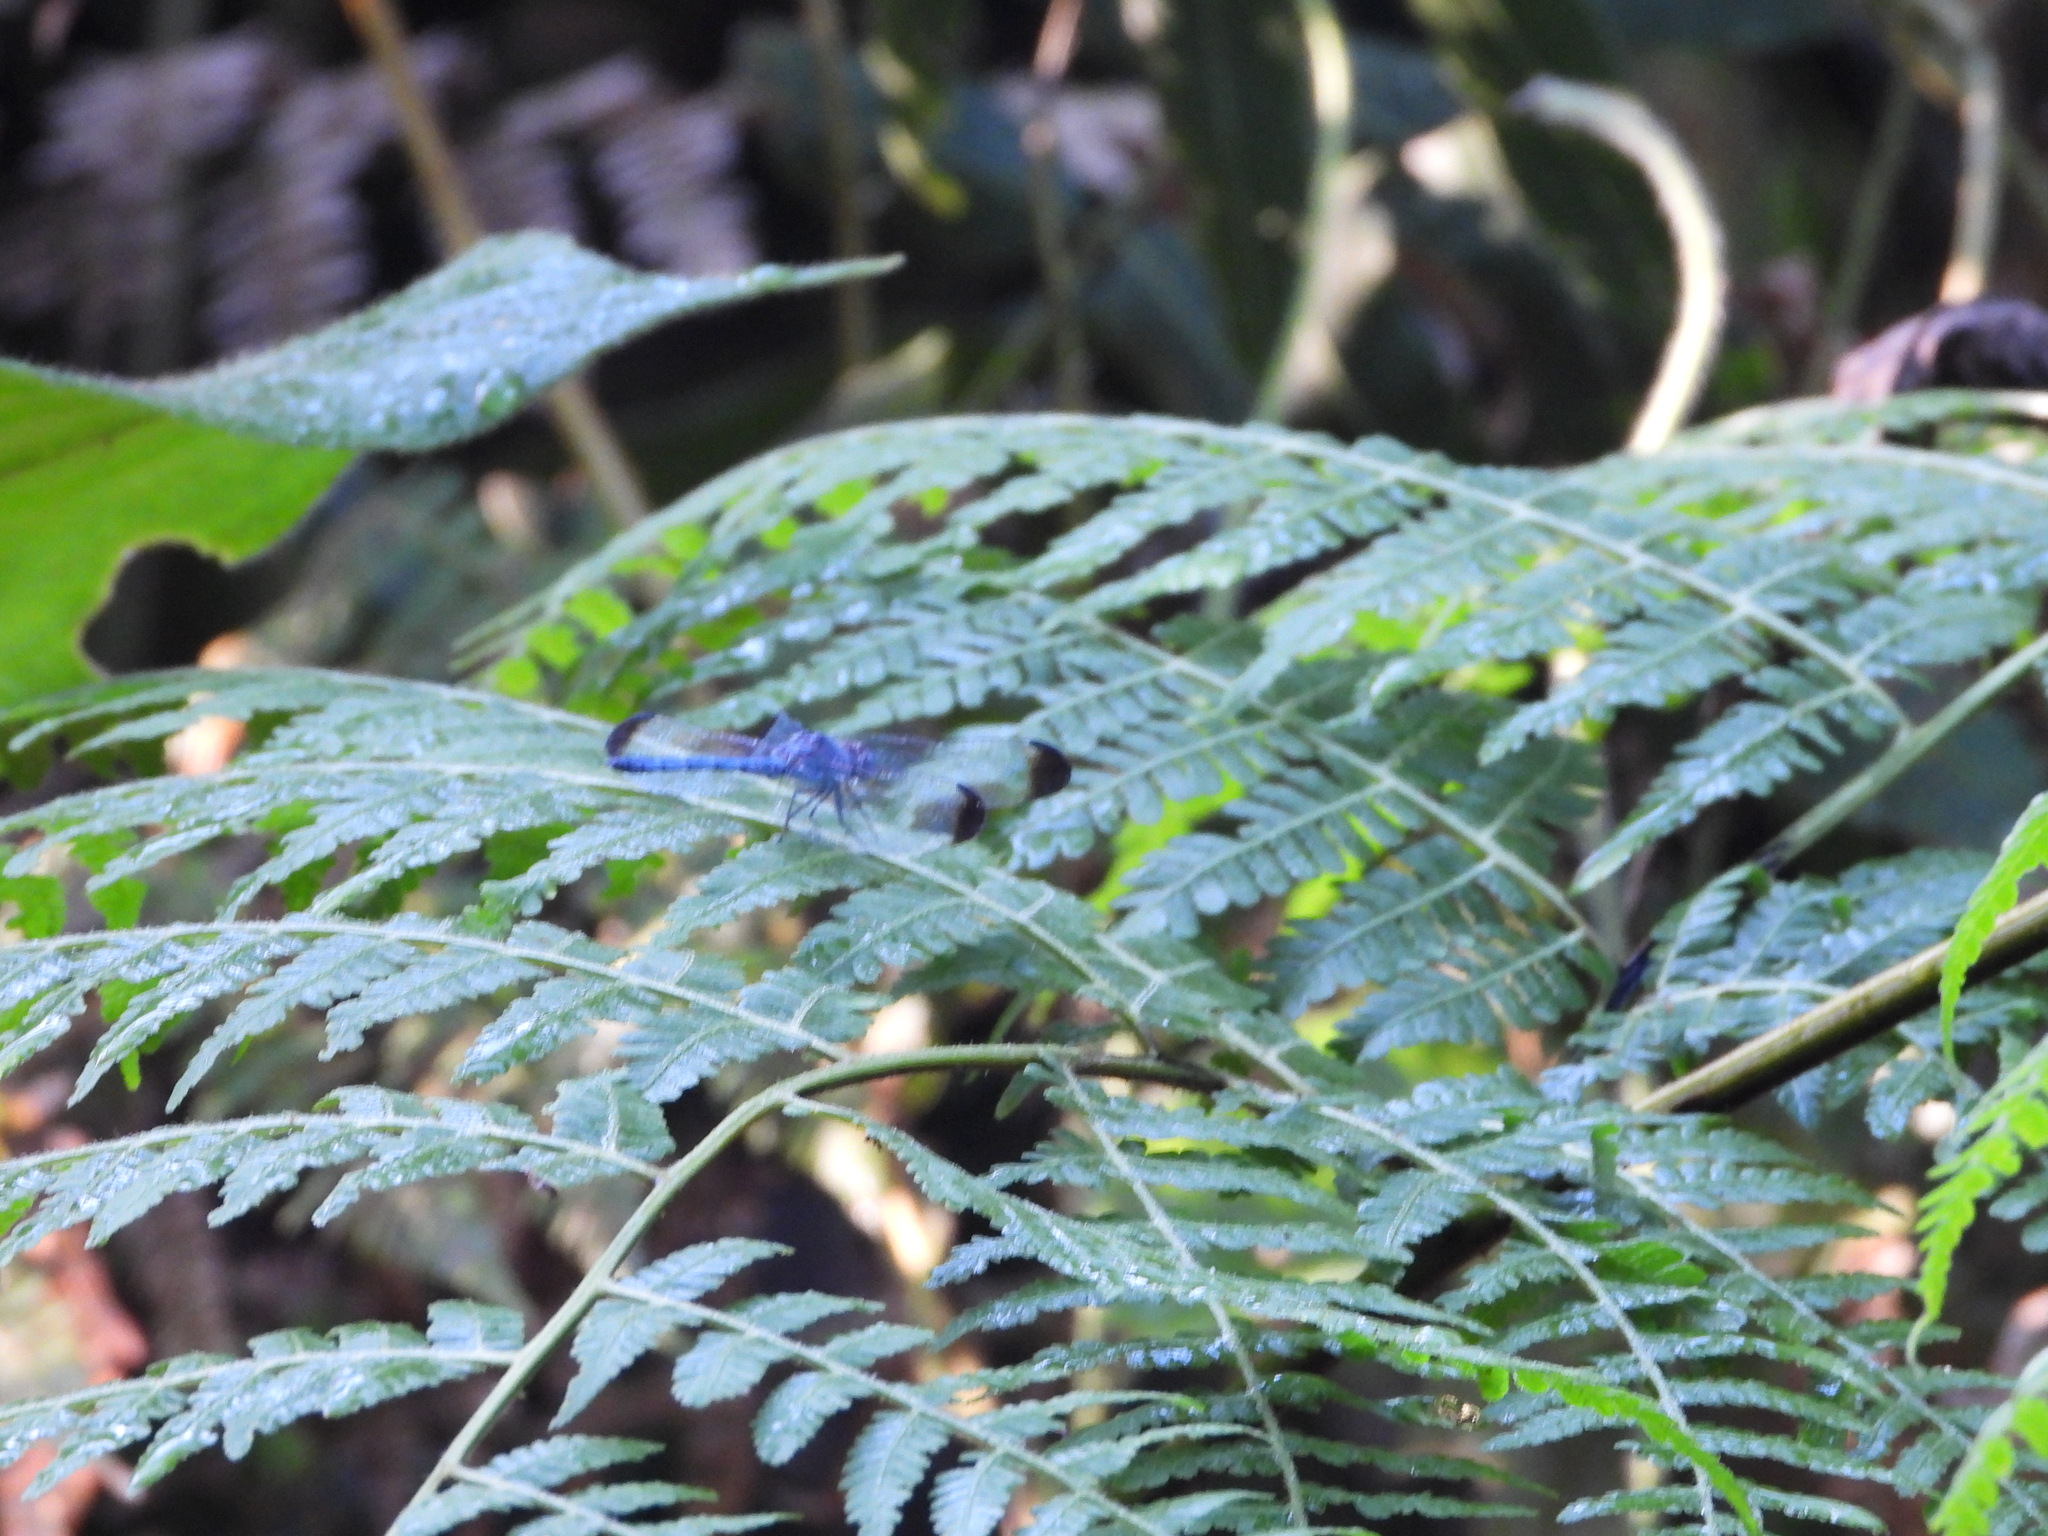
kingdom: Animalia
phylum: Arthropoda
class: Insecta
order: Odonata
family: Libellulidae
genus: Uracis
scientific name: Uracis imbuta
